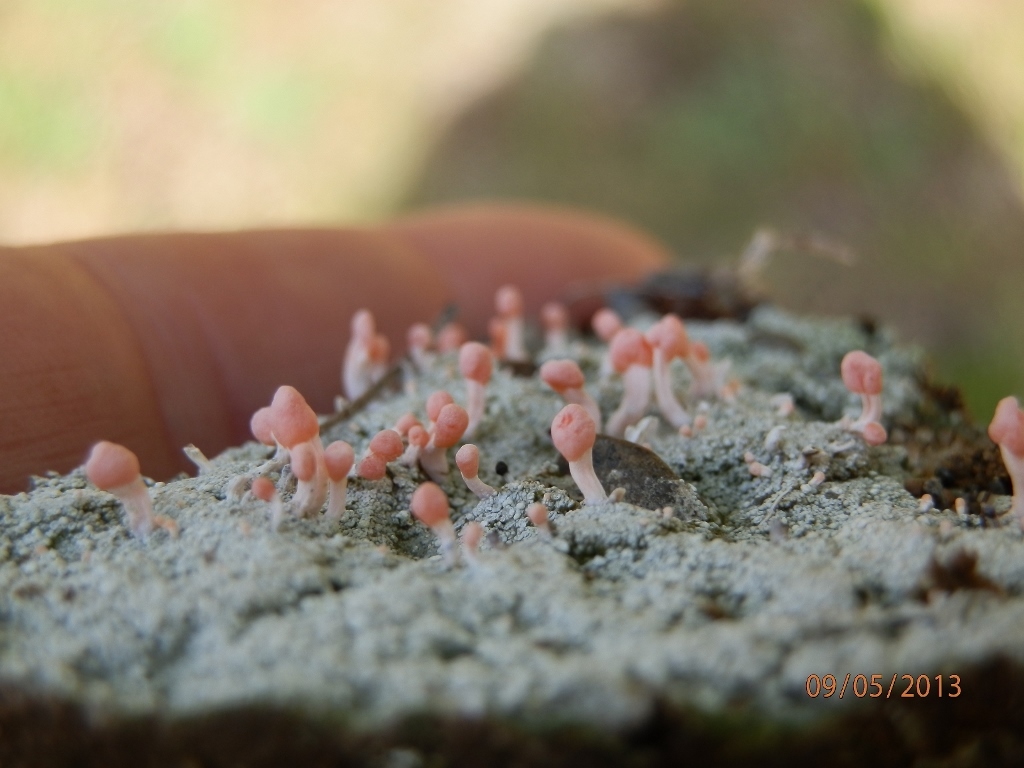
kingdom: Fungi
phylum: Ascomycota
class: Lecanoromycetes
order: Pertusariales
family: Icmadophilaceae
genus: Dibaeis
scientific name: Dibaeis baeomyces
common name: Pink earth lichen
